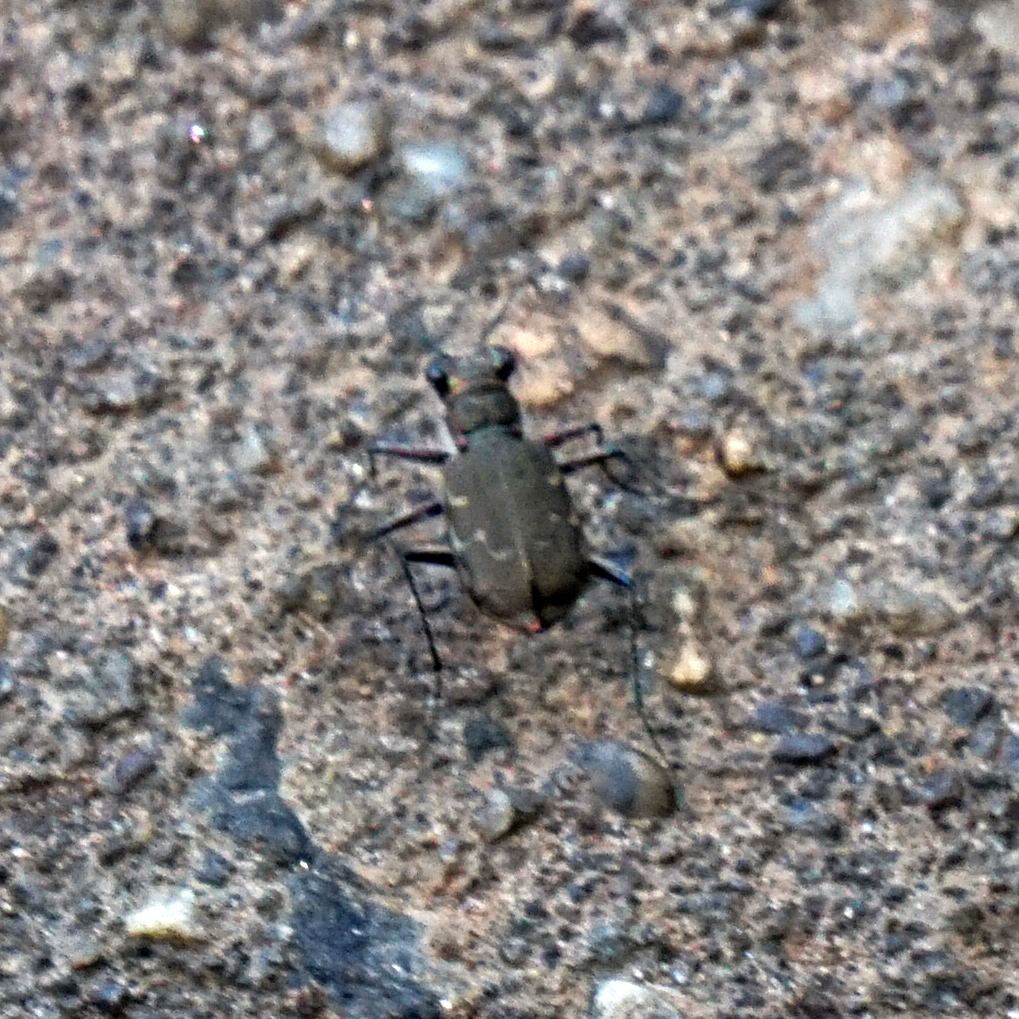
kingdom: Animalia
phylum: Arthropoda
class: Insecta
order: Coleoptera
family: Carabidae
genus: Cicindela
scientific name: Cicindela repanda
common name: Bronzed tiger beetle
